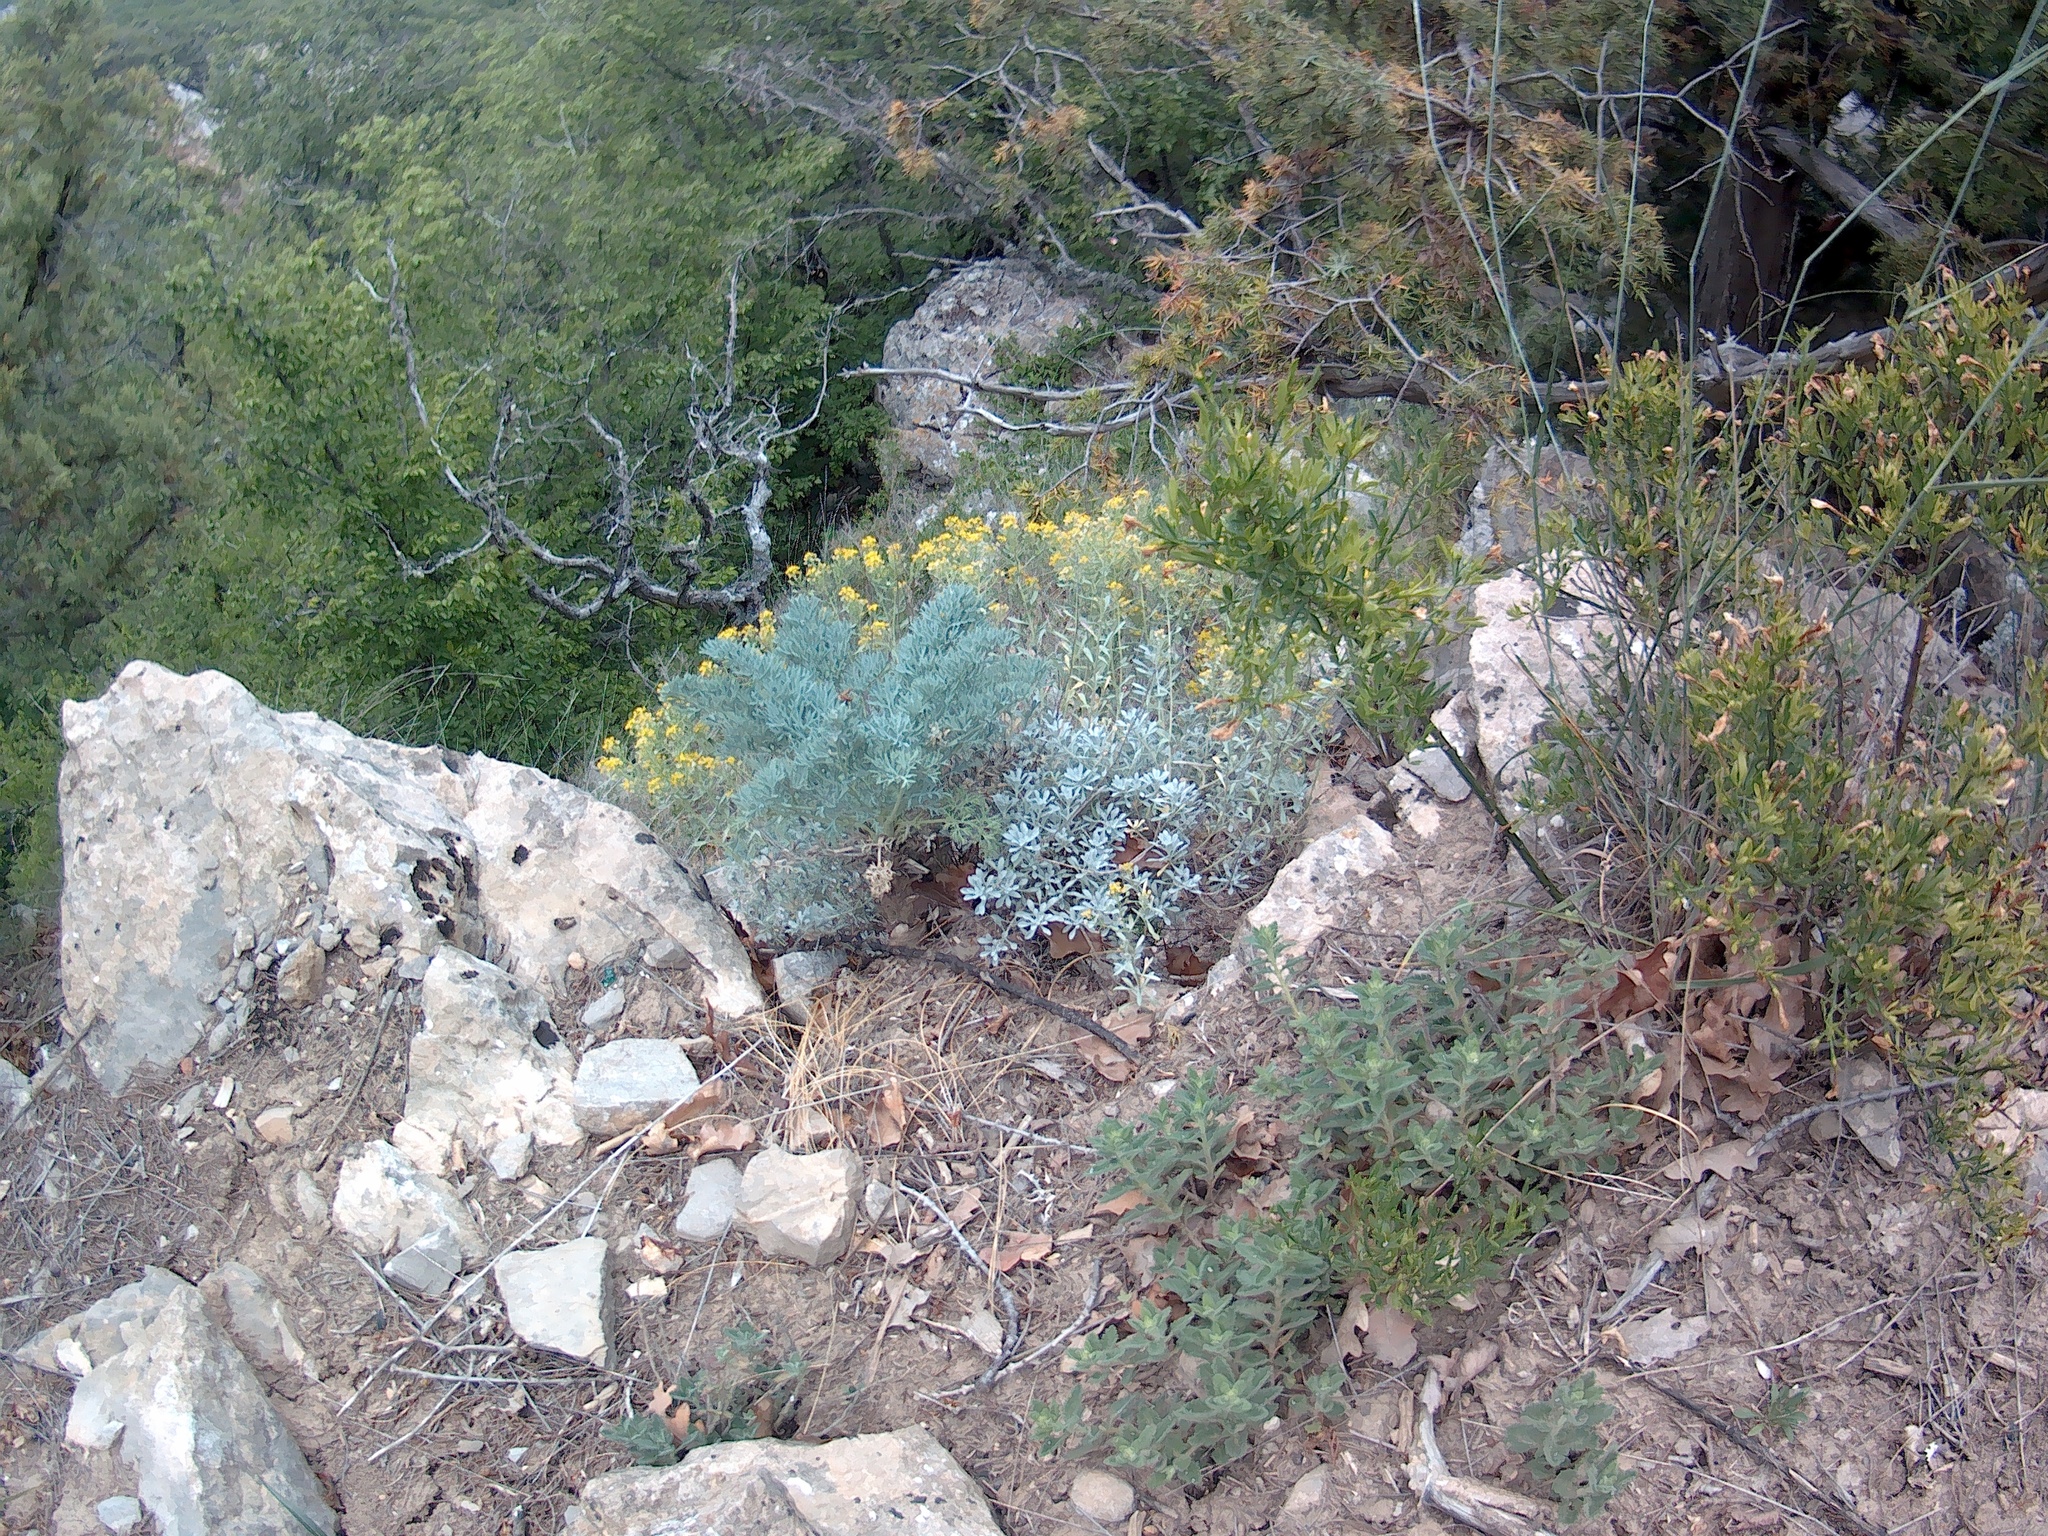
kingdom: Plantae
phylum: Tracheophyta
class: Magnoliopsida
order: Apiales
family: Apiaceae
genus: Seseli
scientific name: Seseli gummiferum
